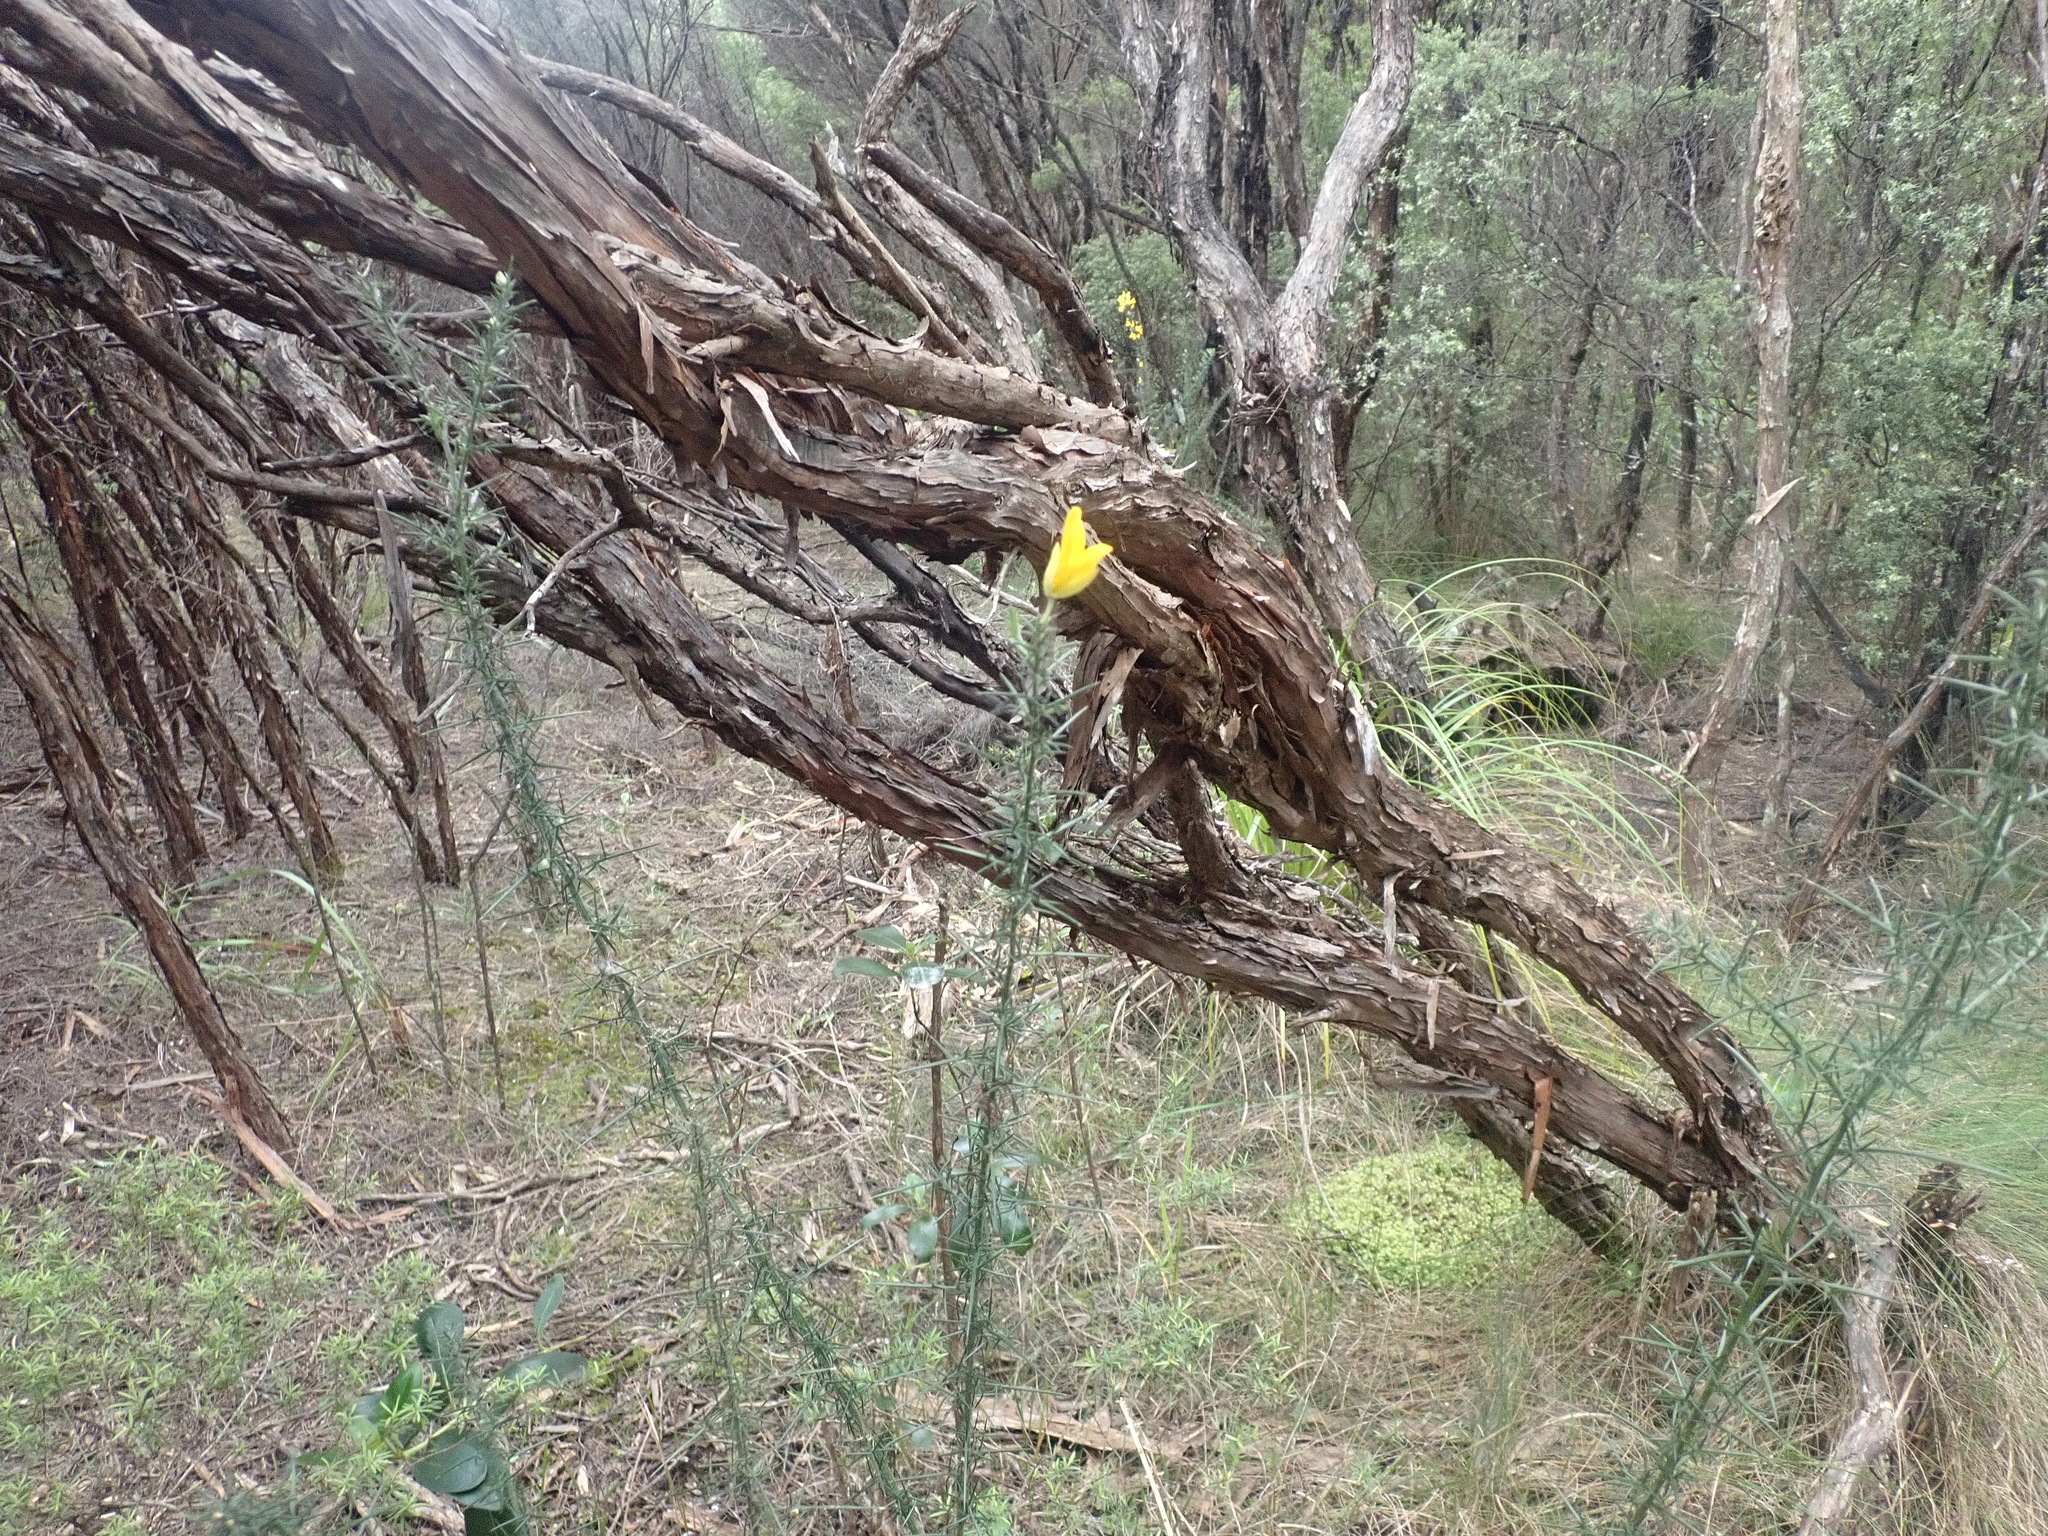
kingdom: Plantae
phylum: Tracheophyta
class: Magnoliopsida
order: Fabales
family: Fabaceae
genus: Ulex
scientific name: Ulex europaeus
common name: Common gorse
